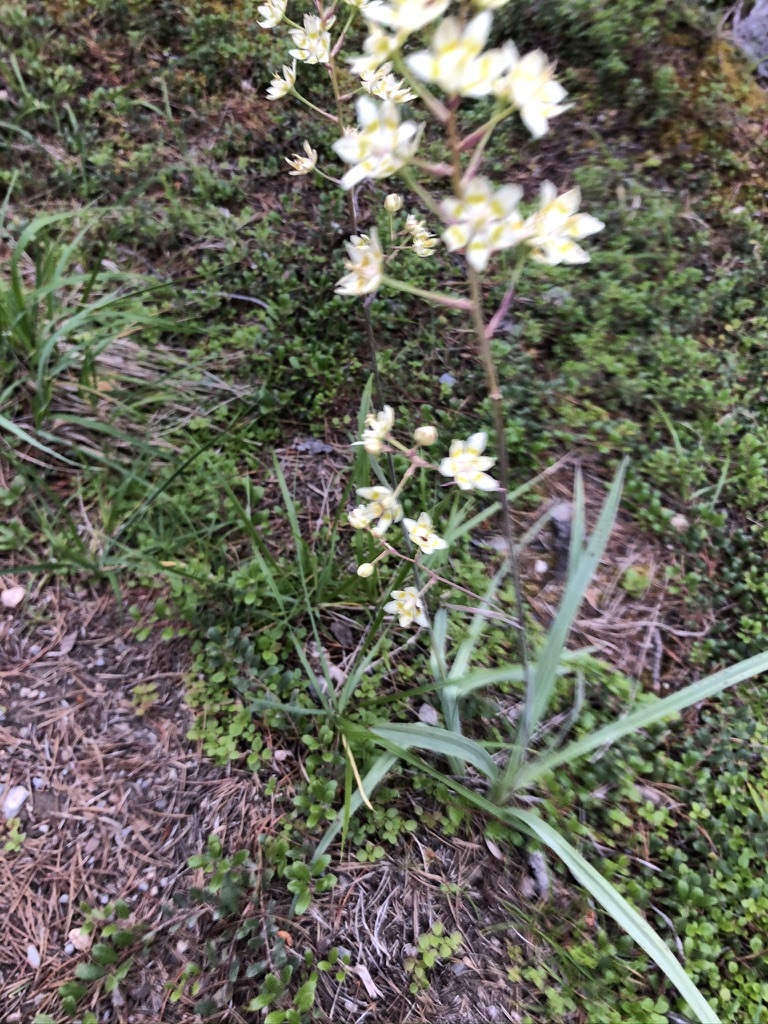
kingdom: Plantae
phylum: Tracheophyta
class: Liliopsida
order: Liliales
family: Melanthiaceae
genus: Anticlea
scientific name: Anticlea elegans
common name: Mountain death camas
